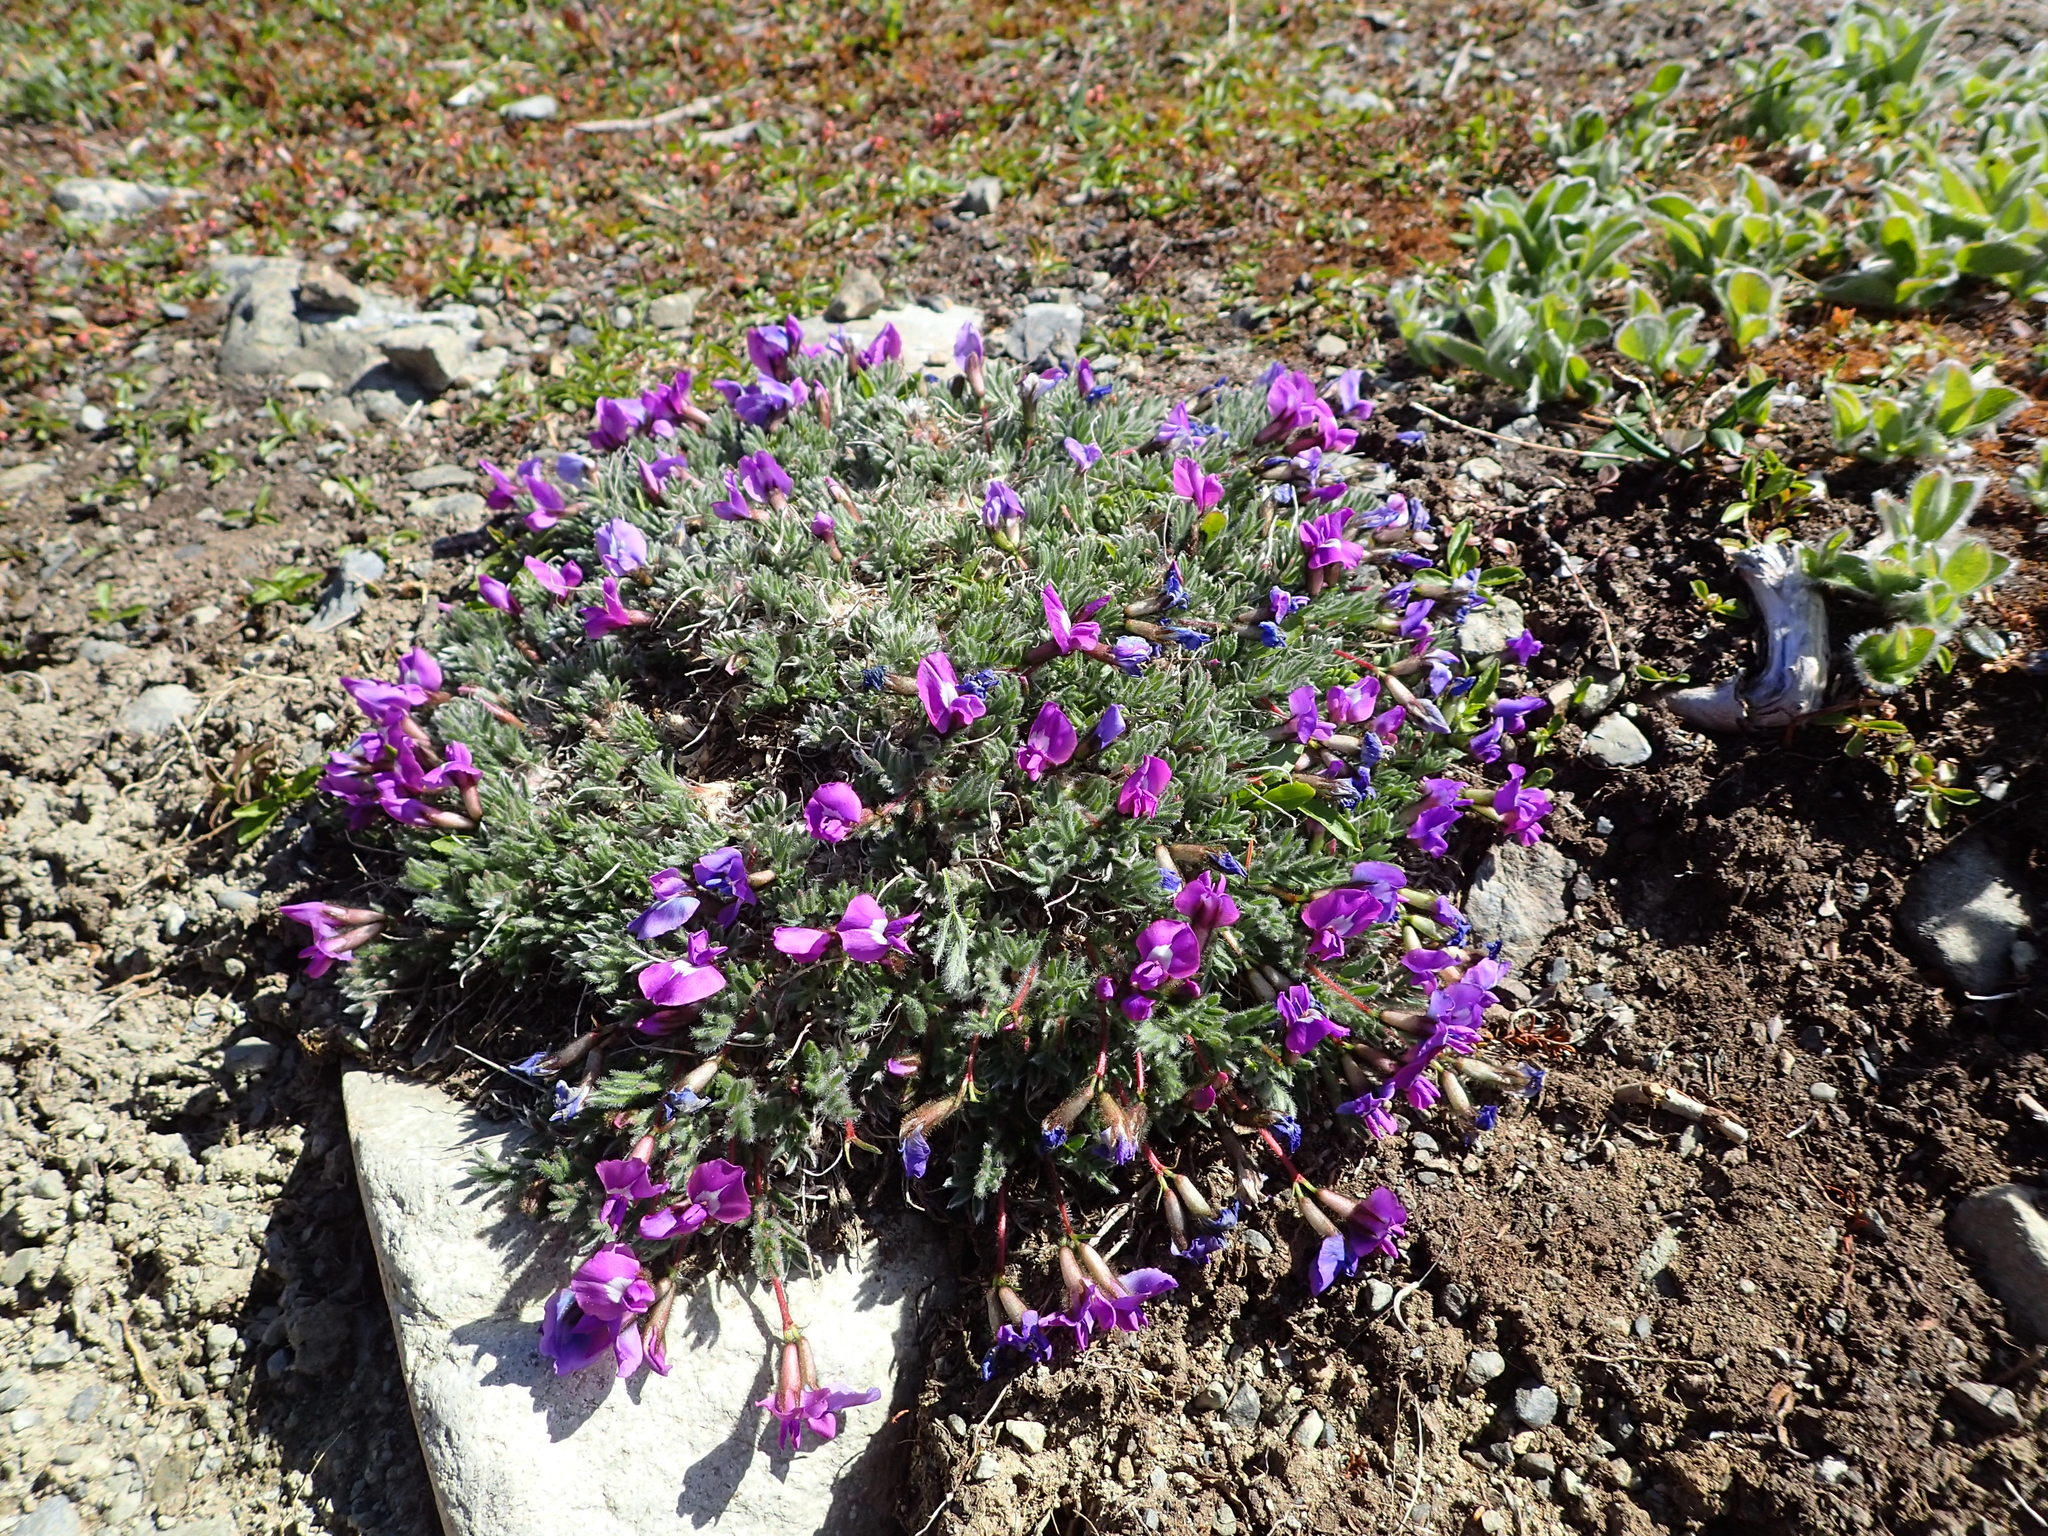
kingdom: Plantae
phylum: Tracheophyta
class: Magnoliopsida
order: Fabales
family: Fabaceae
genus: Oxytropis
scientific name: Oxytropis nigrescens
